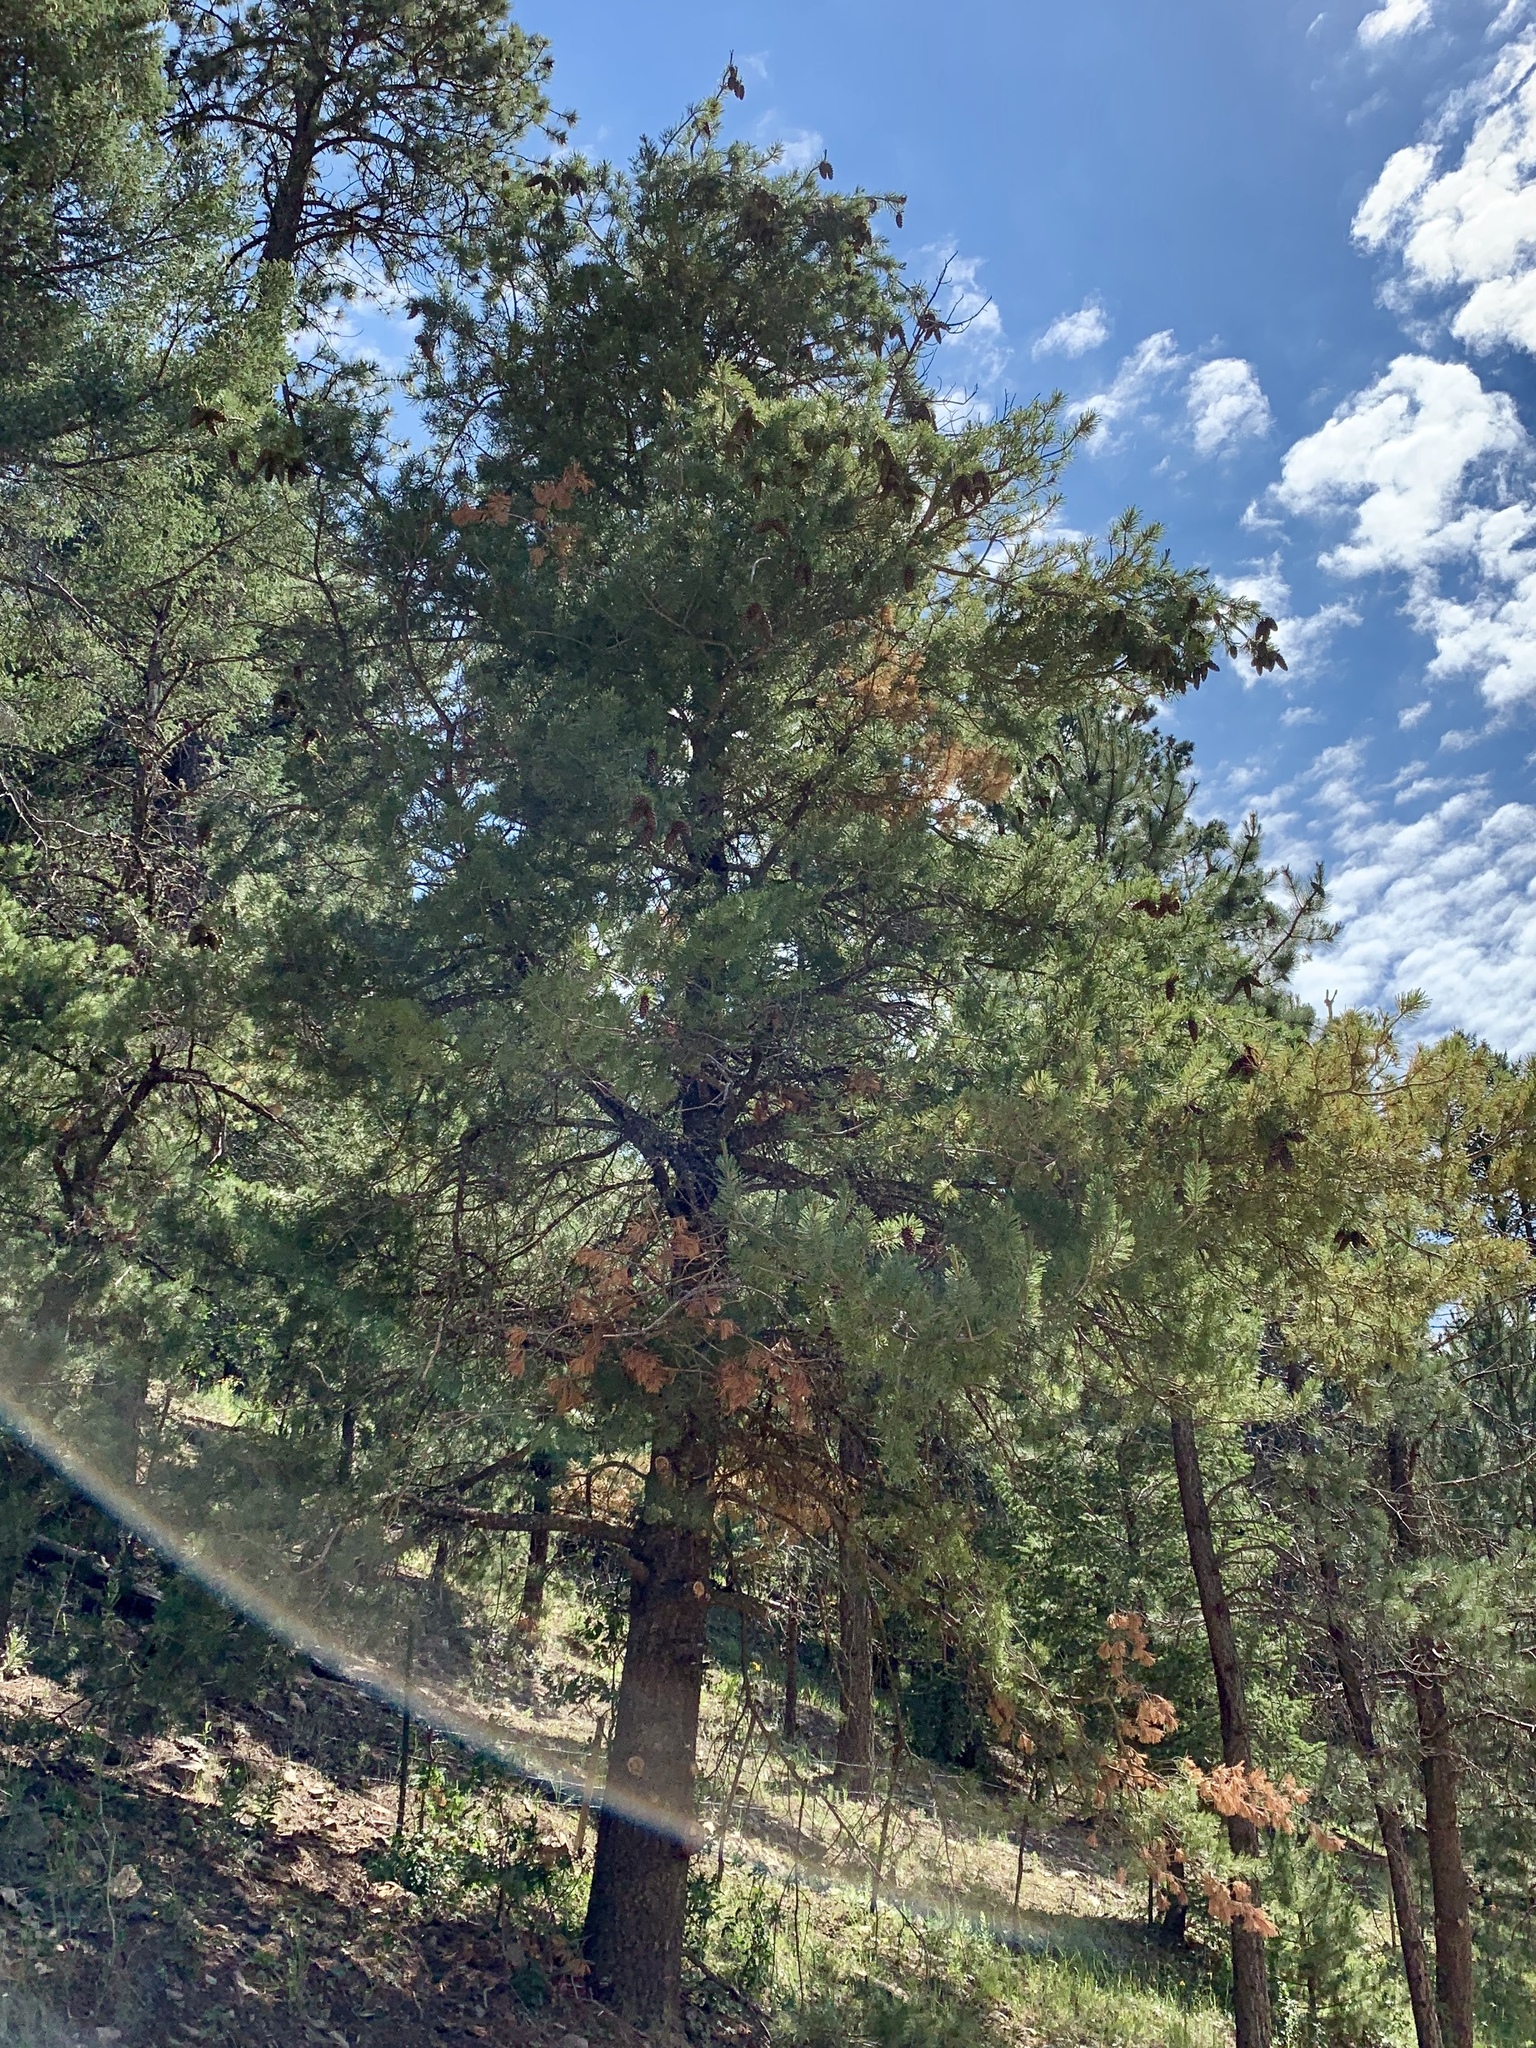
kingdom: Plantae
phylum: Tracheophyta
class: Pinopsida
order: Pinales
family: Pinaceae
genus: Pinus
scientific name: Pinus strobiformis
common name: Southwestern white pine
